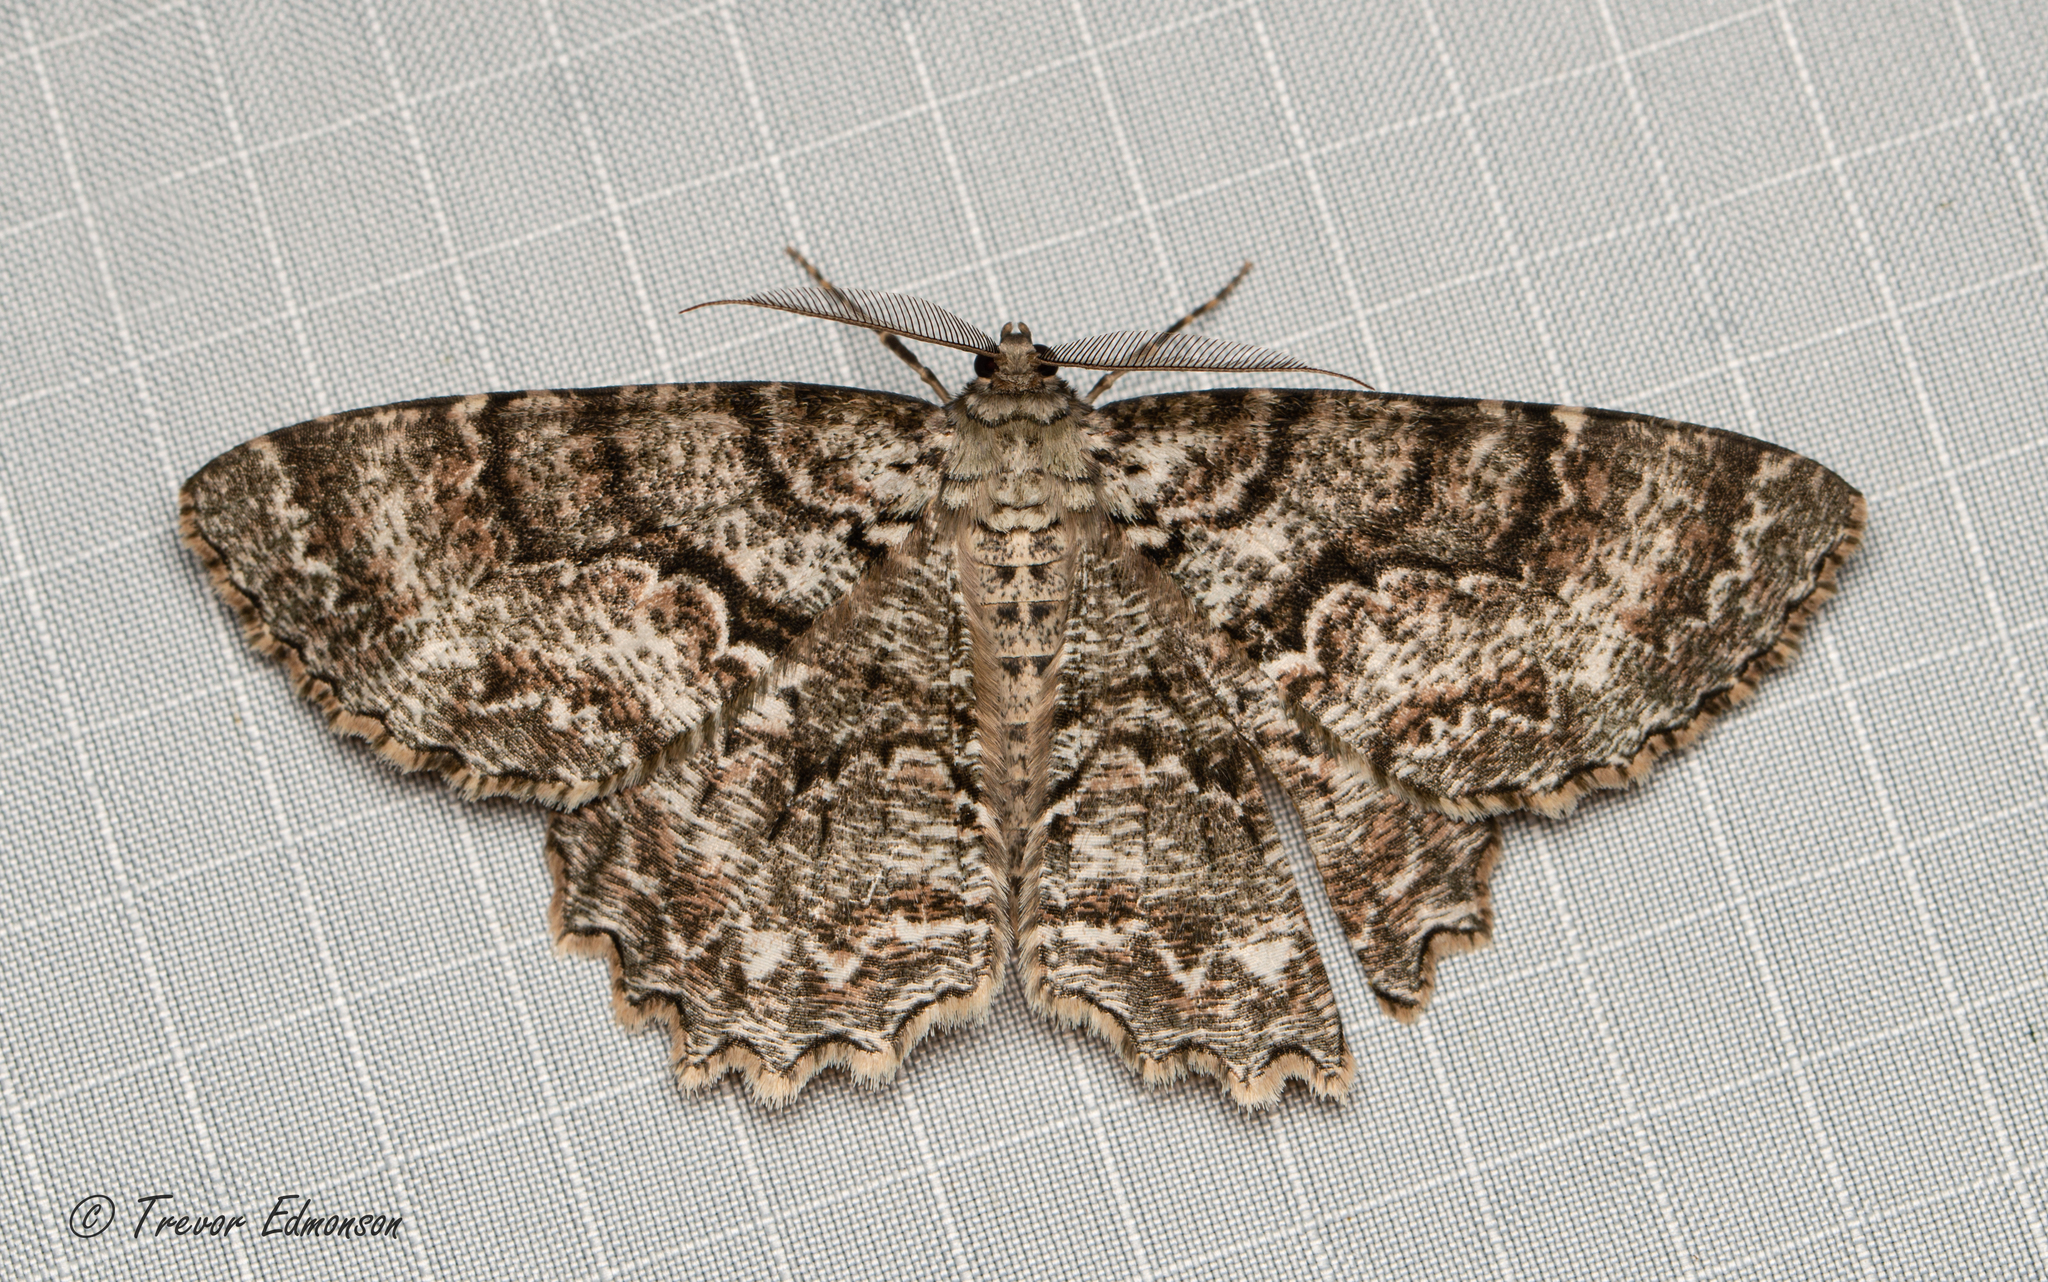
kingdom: Animalia
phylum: Arthropoda
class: Insecta
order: Lepidoptera
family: Geometridae
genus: Epimecis
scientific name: Epimecis hortaria
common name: Tulip-tree beauty
